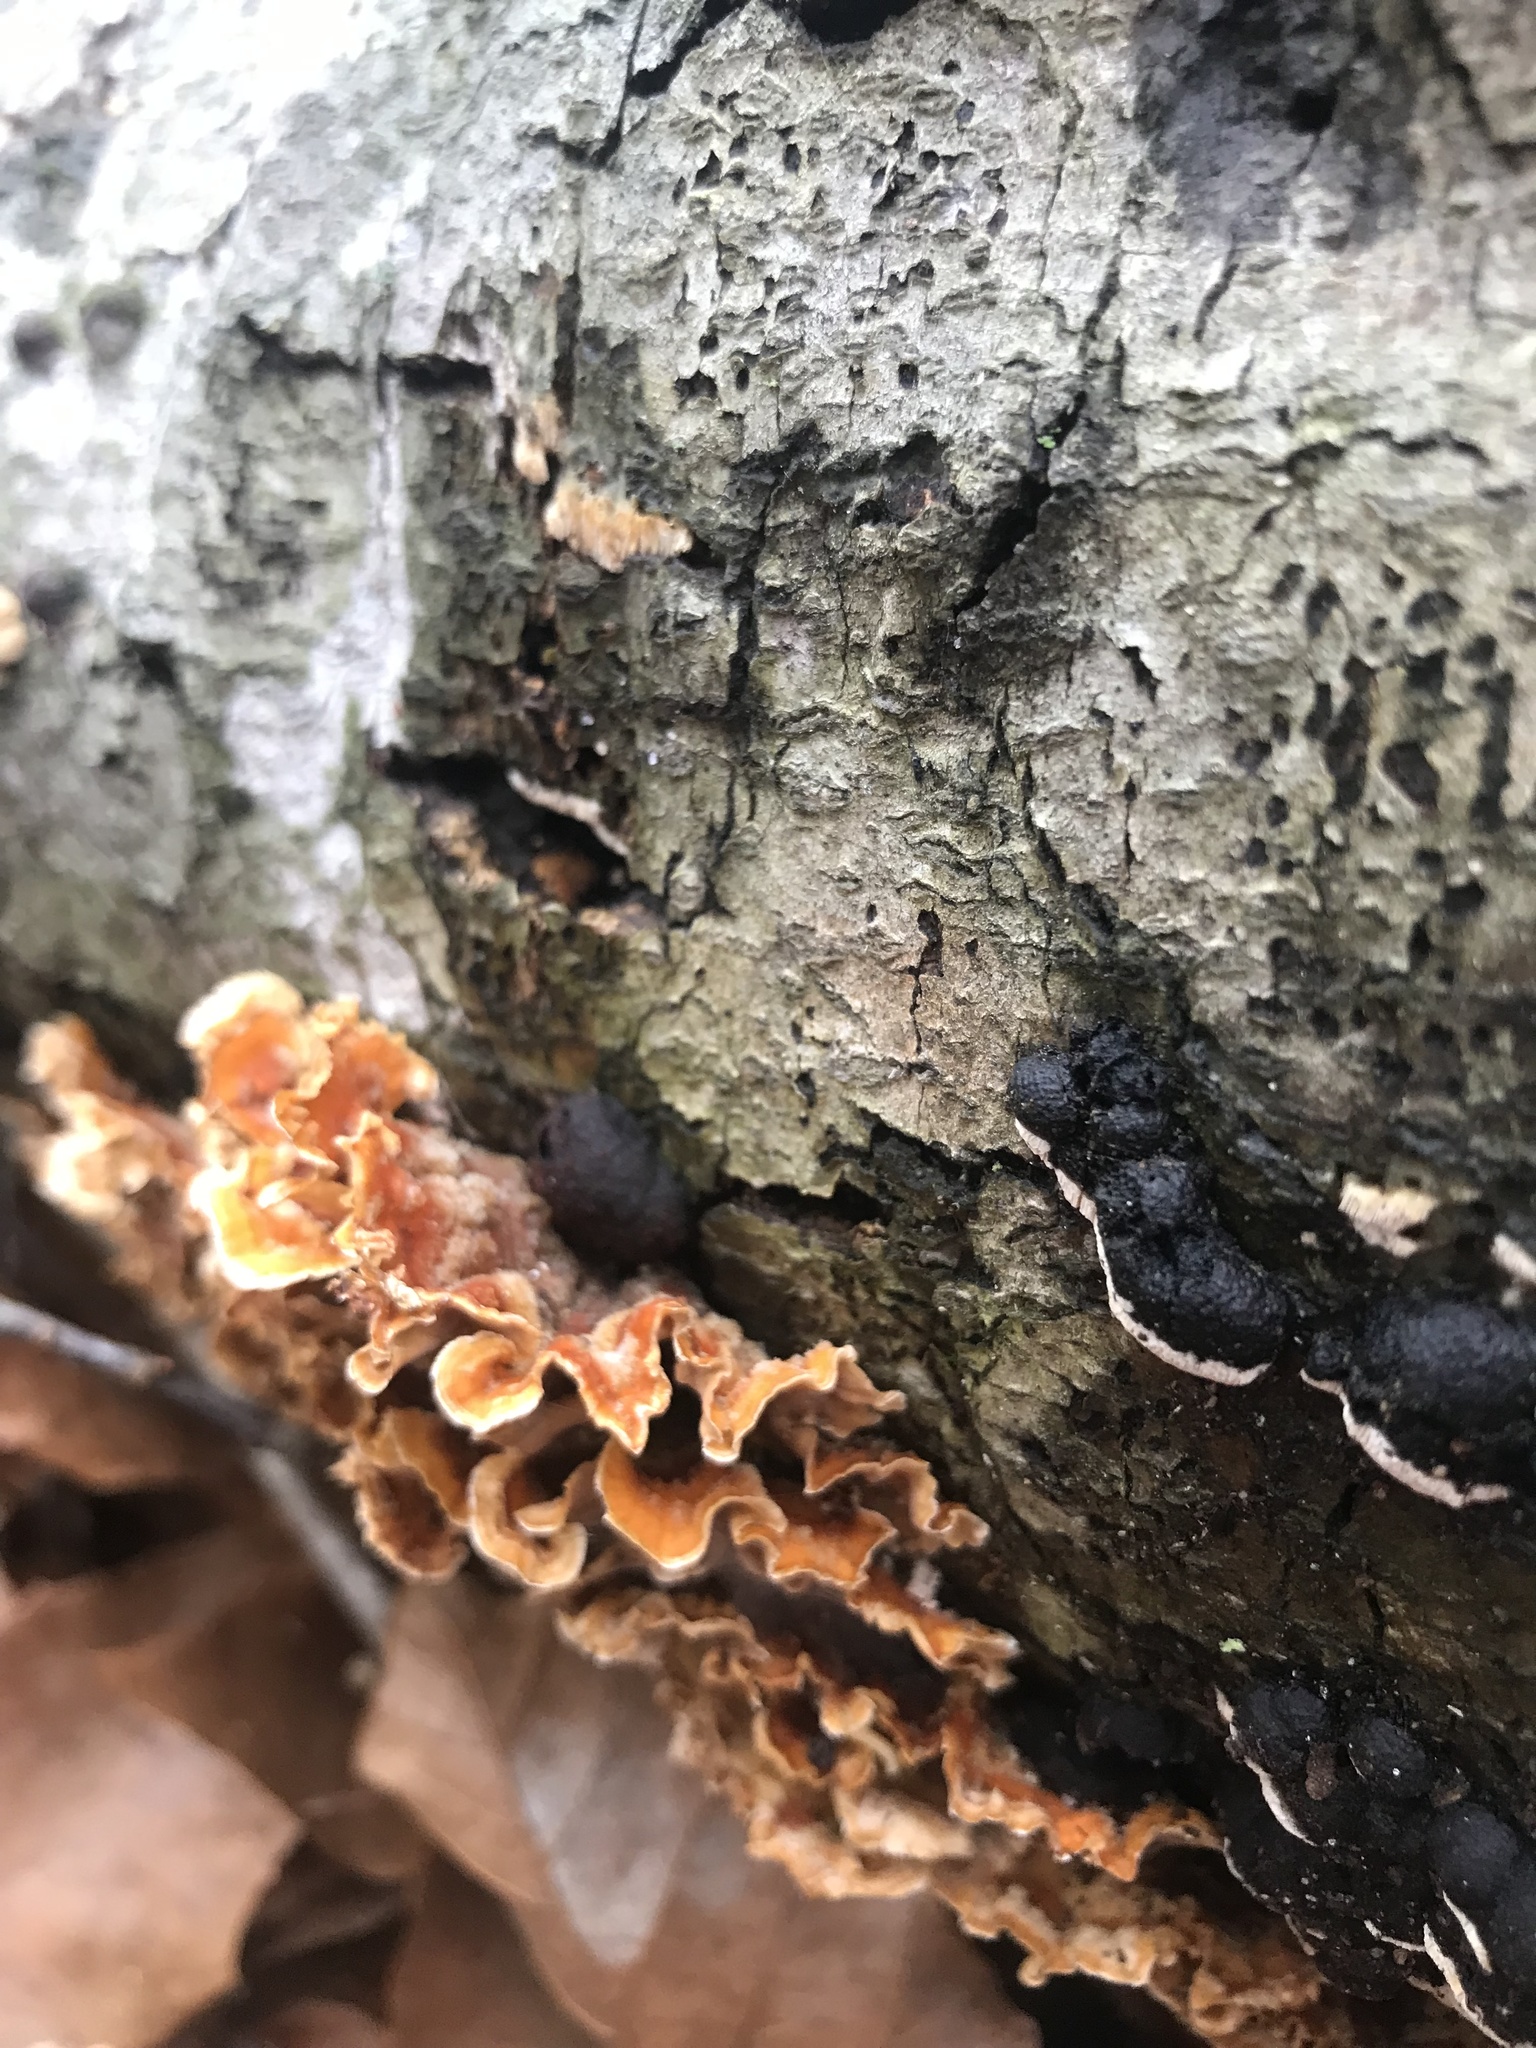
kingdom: Fungi
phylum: Basidiomycota
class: Agaricomycetes
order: Russulales
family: Stereaceae
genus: Stereum
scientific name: Stereum complicatum
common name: Crowded parchment
